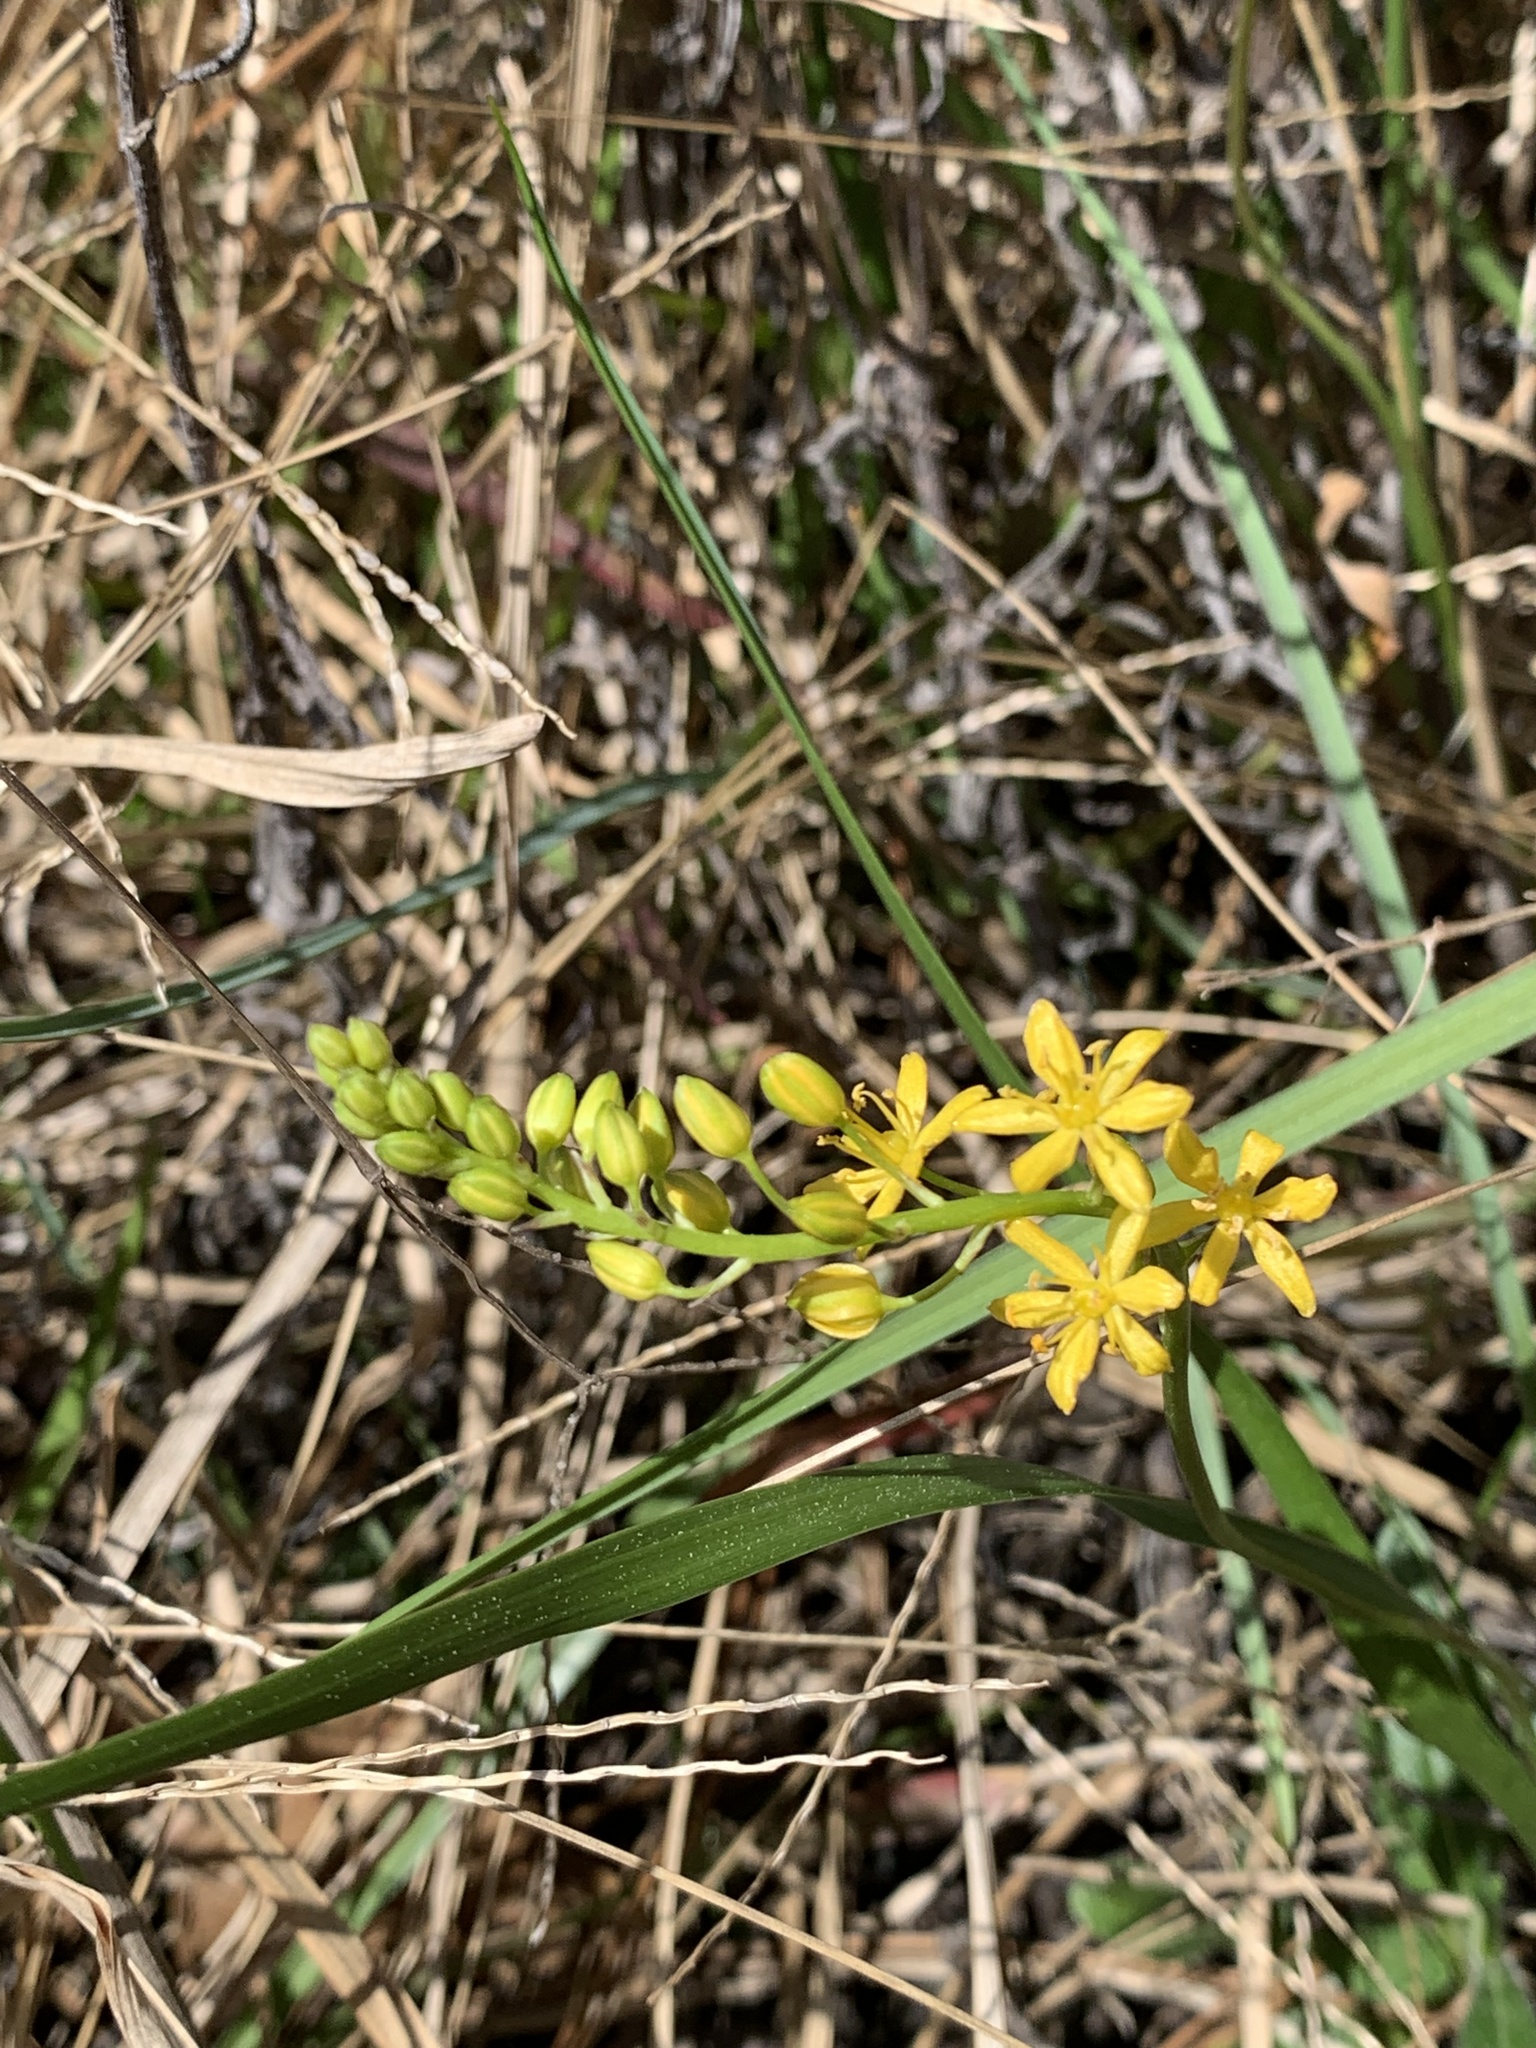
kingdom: Plantae
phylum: Tracheophyta
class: Liliopsida
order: Asparagales
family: Asparagaceae
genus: Schoenolirion
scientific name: Schoenolirion croceum
